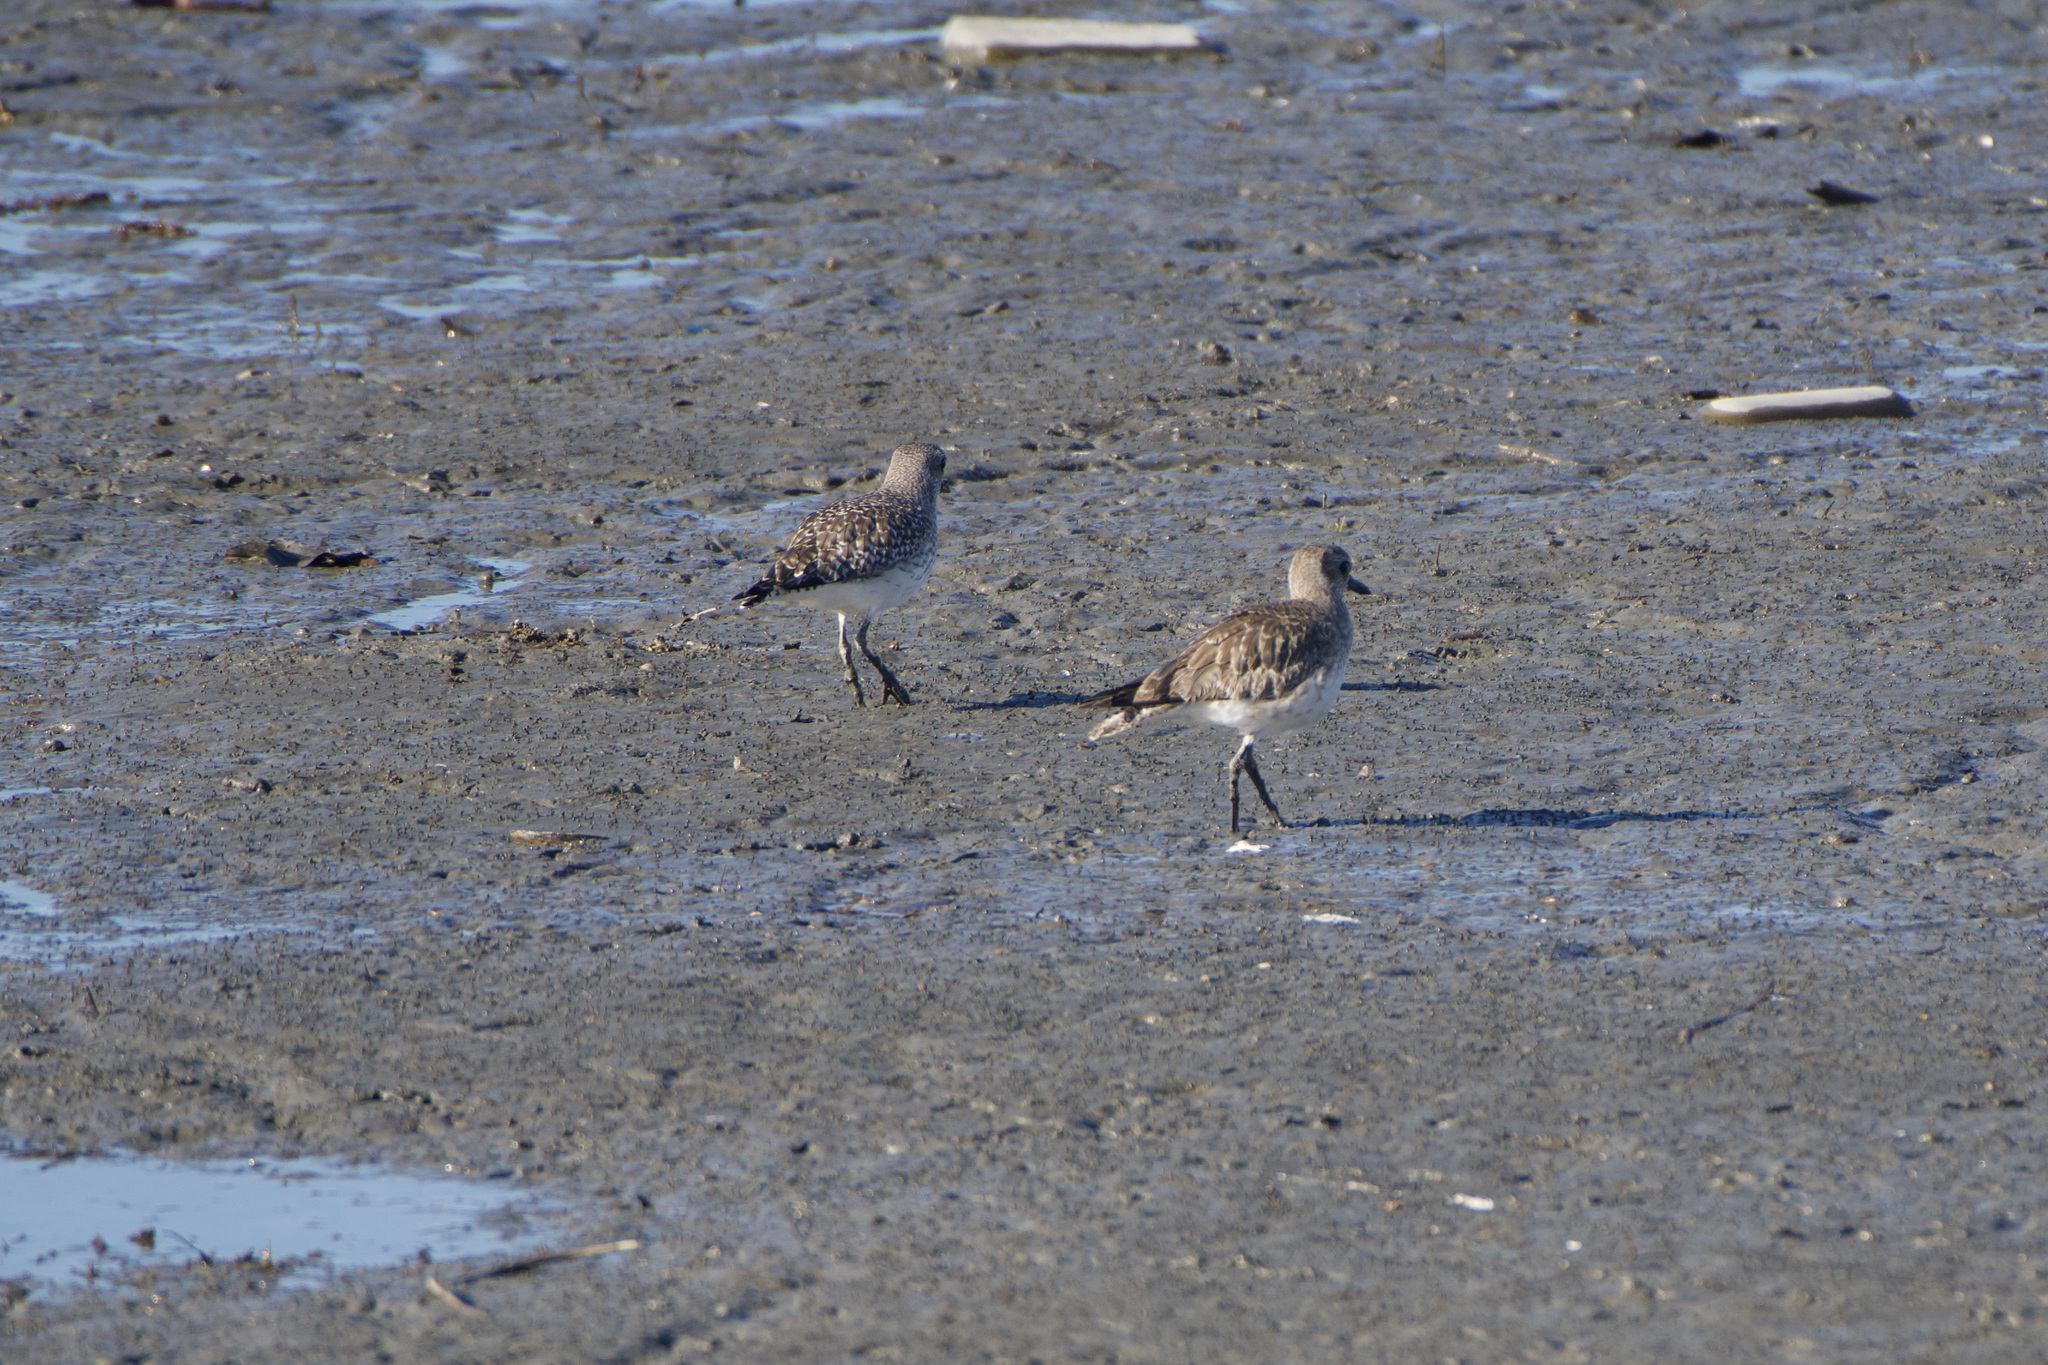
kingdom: Animalia
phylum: Chordata
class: Aves
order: Charadriiformes
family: Charadriidae
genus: Pluvialis
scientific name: Pluvialis squatarola
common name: Grey plover
